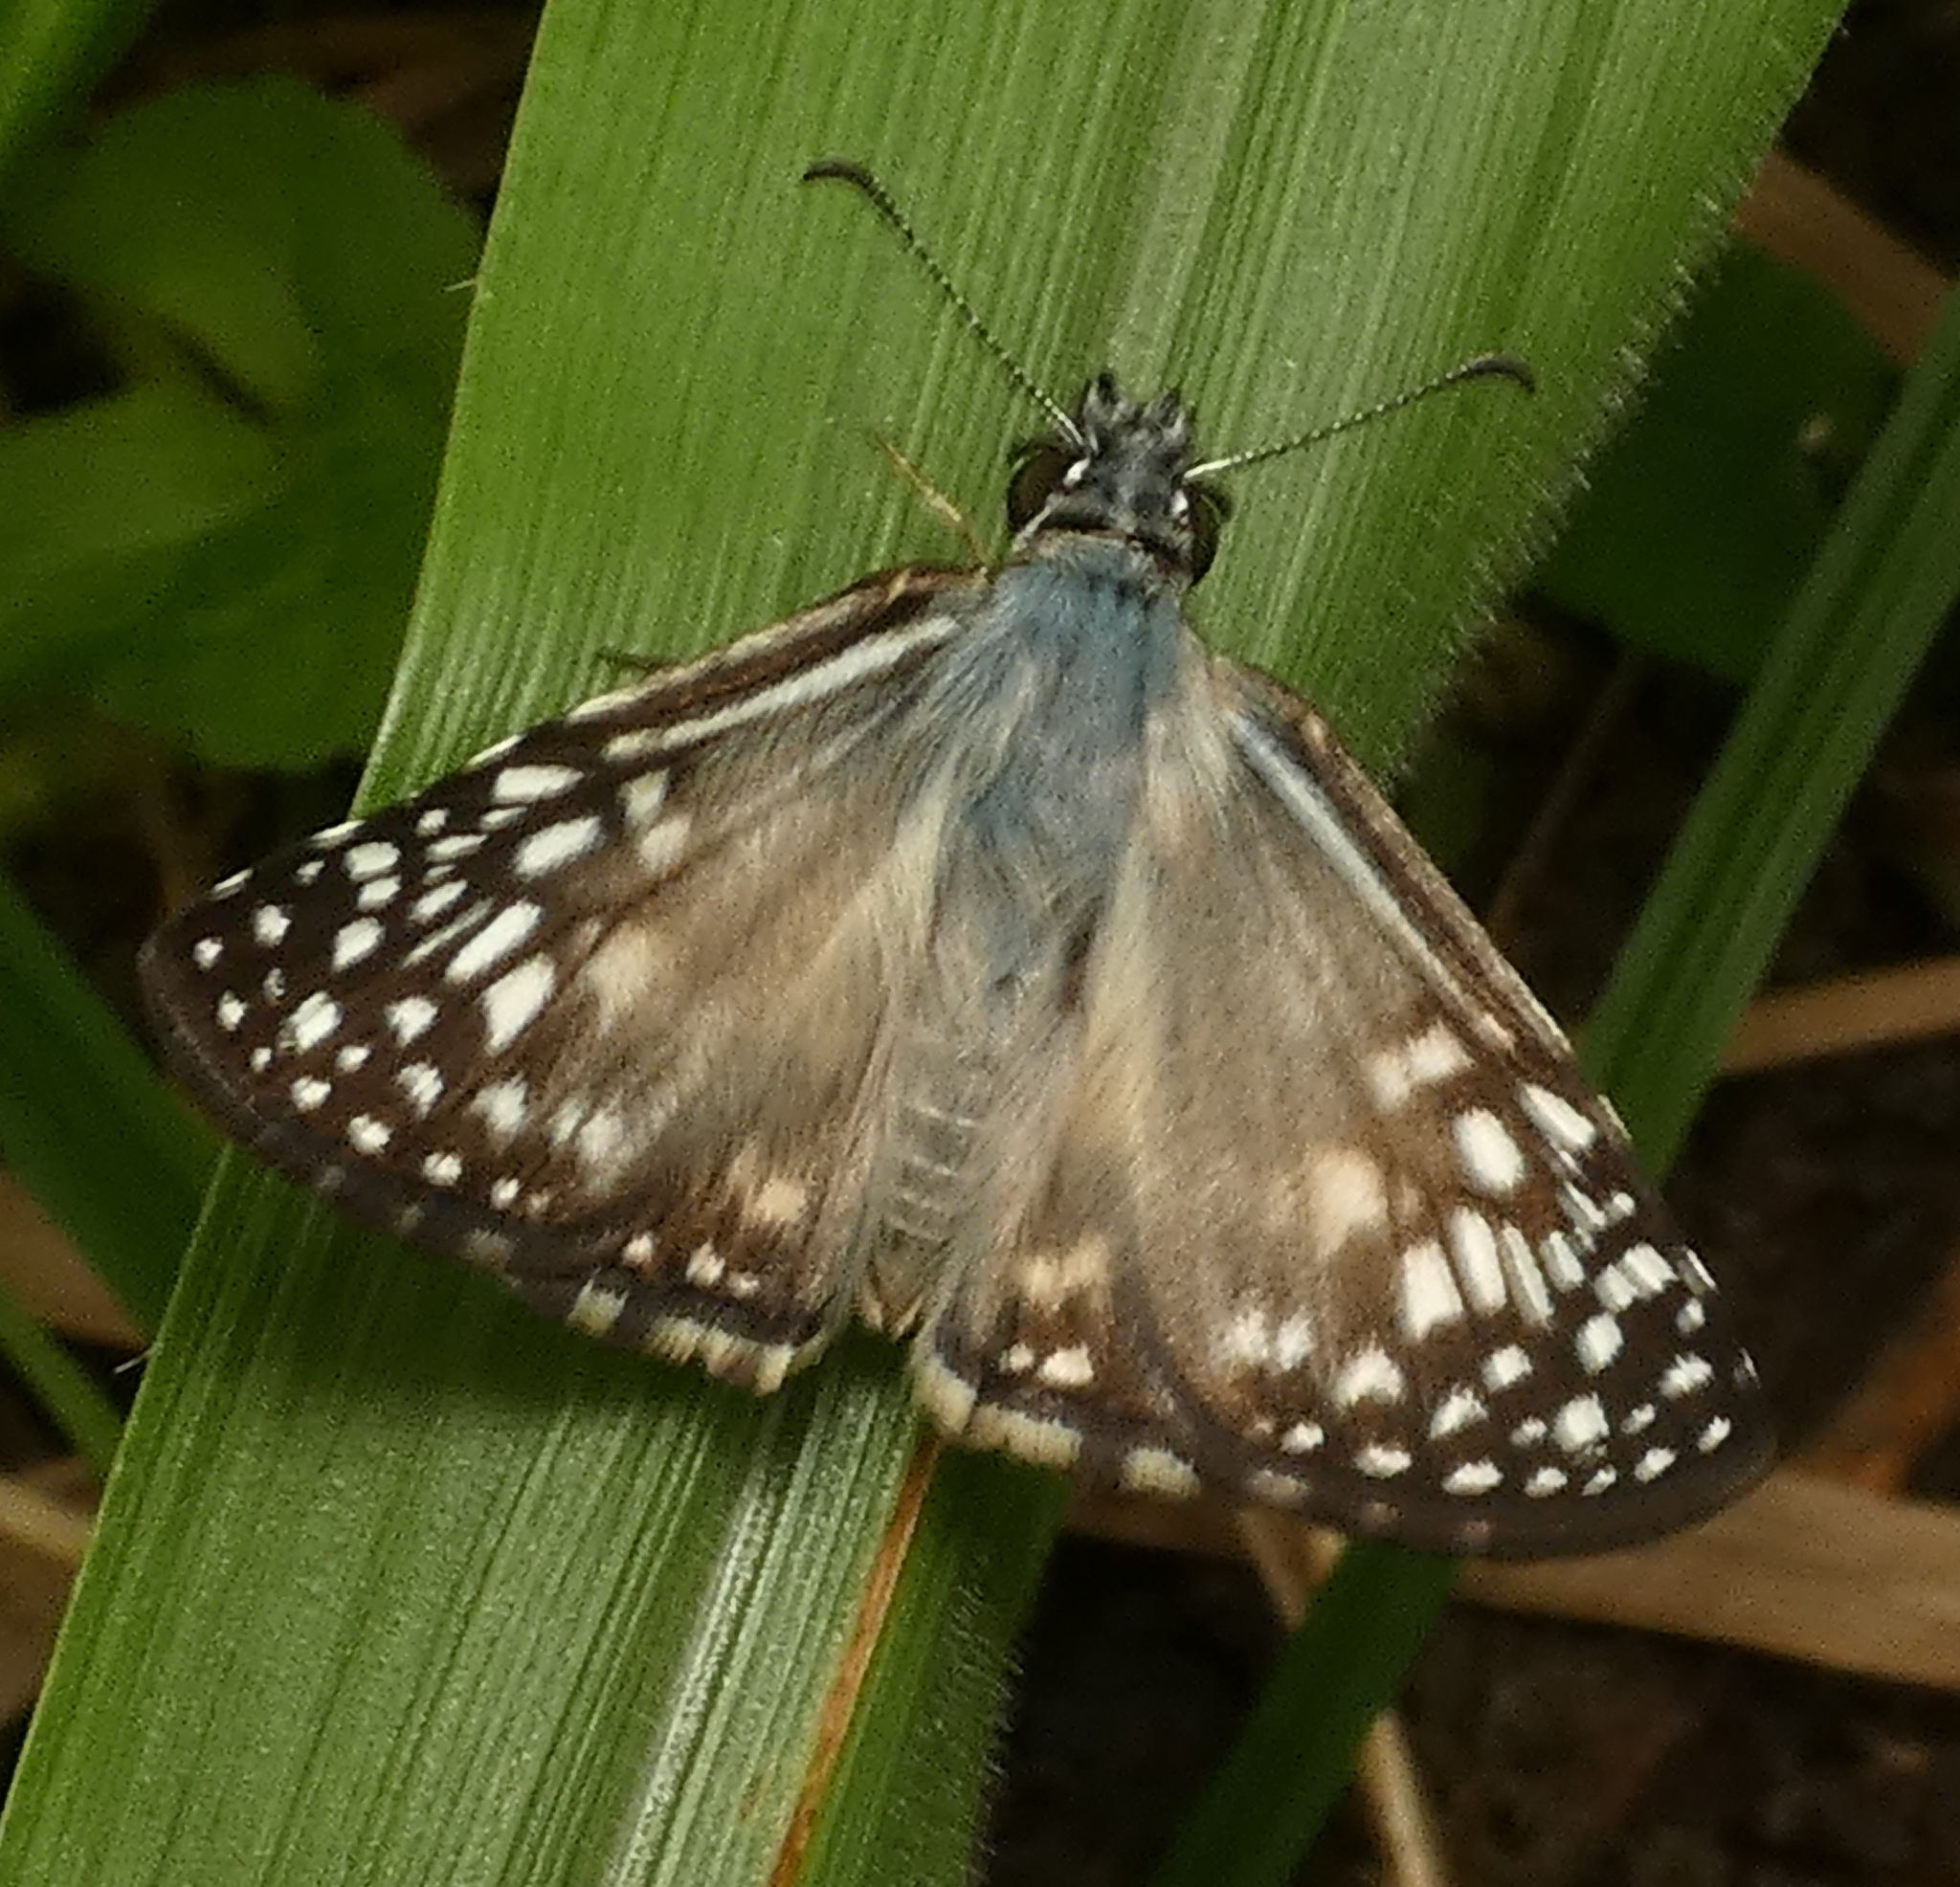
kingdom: Animalia
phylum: Arthropoda
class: Insecta
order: Lepidoptera
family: Hesperiidae
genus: Pyrgus
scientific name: Pyrgus oileus
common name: Tropical checkered-skipper
